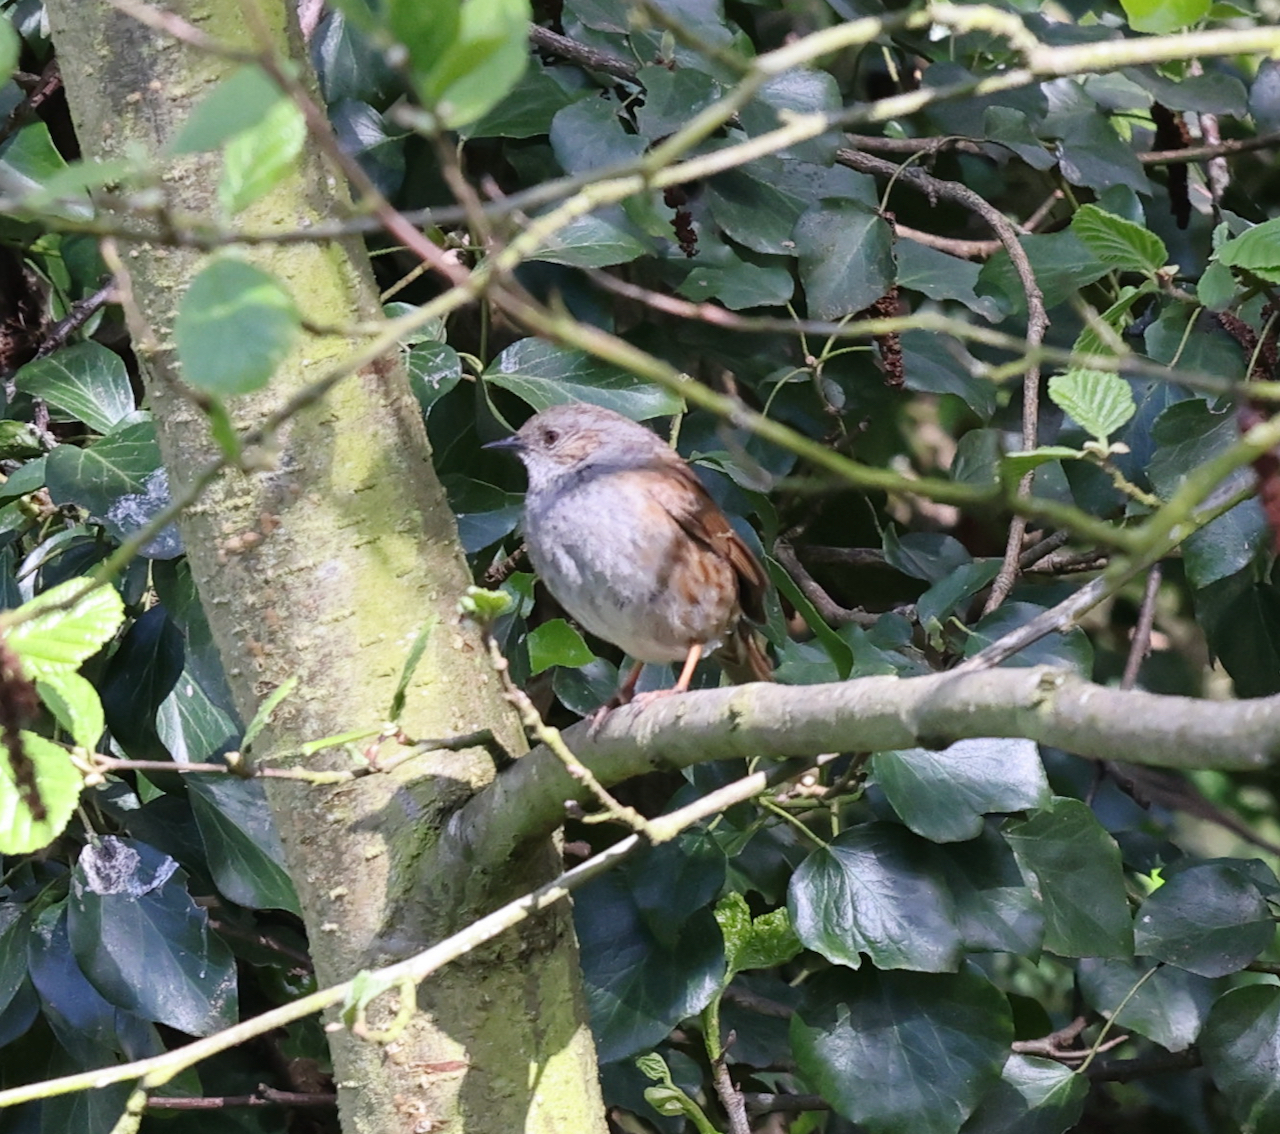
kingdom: Animalia
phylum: Chordata
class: Aves
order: Passeriformes
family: Prunellidae
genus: Prunella
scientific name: Prunella modularis
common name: Dunnock
